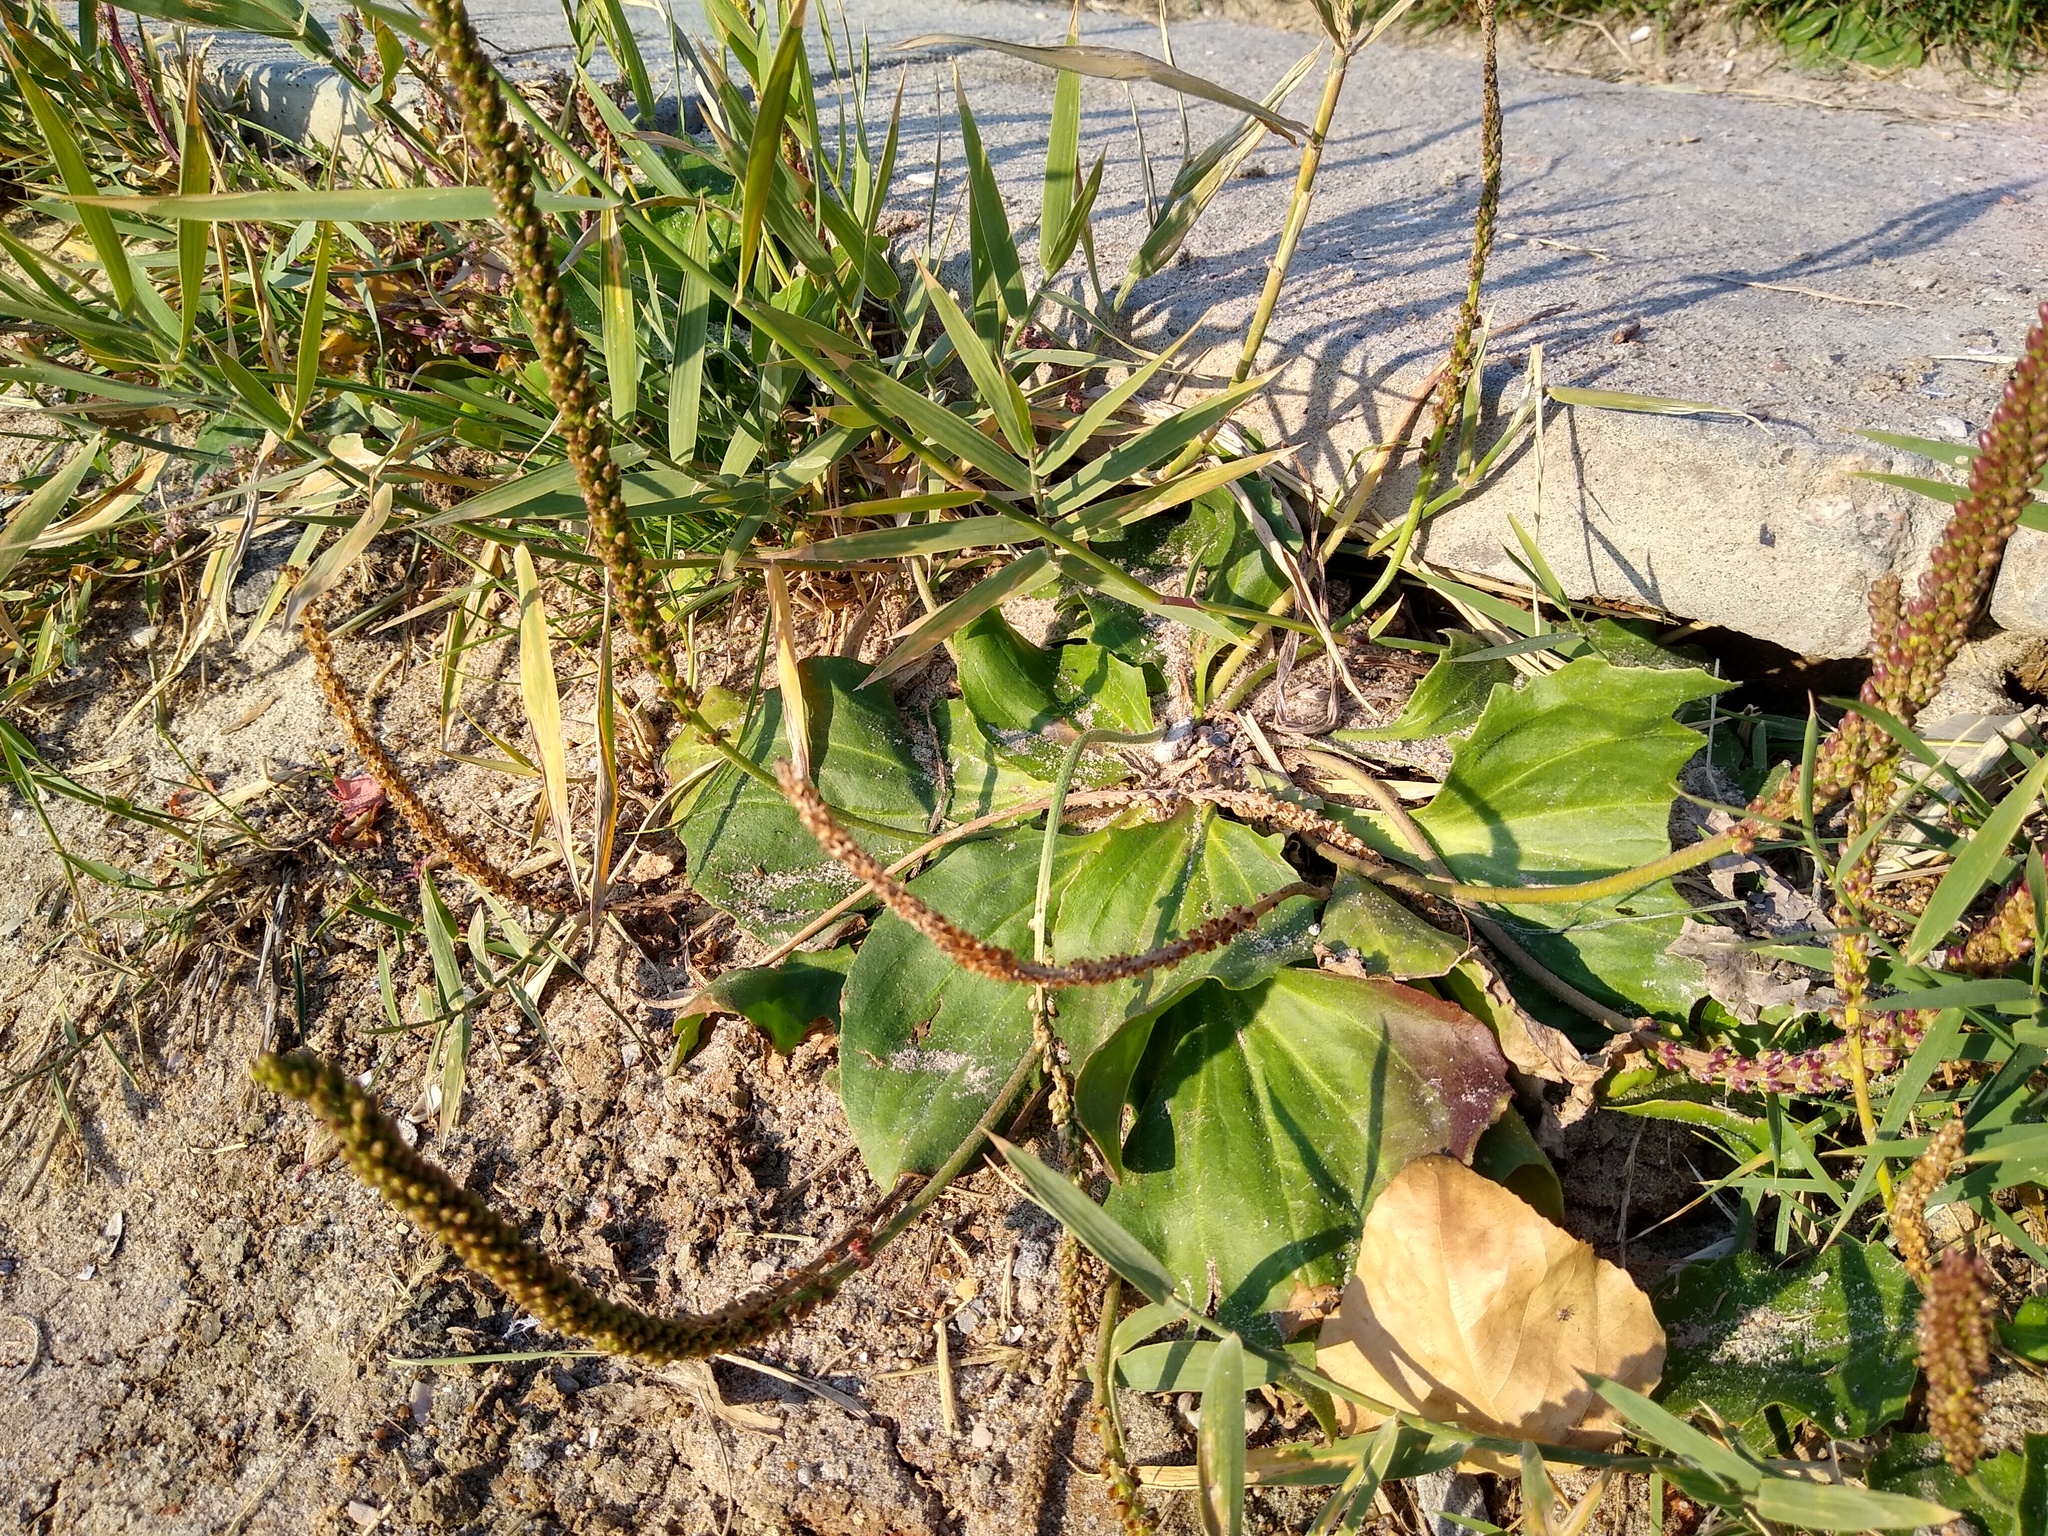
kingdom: Plantae
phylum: Tracheophyta
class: Magnoliopsida
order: Lamiales
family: Plantaginaceae
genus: Plantago
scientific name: Plantago major
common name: Common plantain
